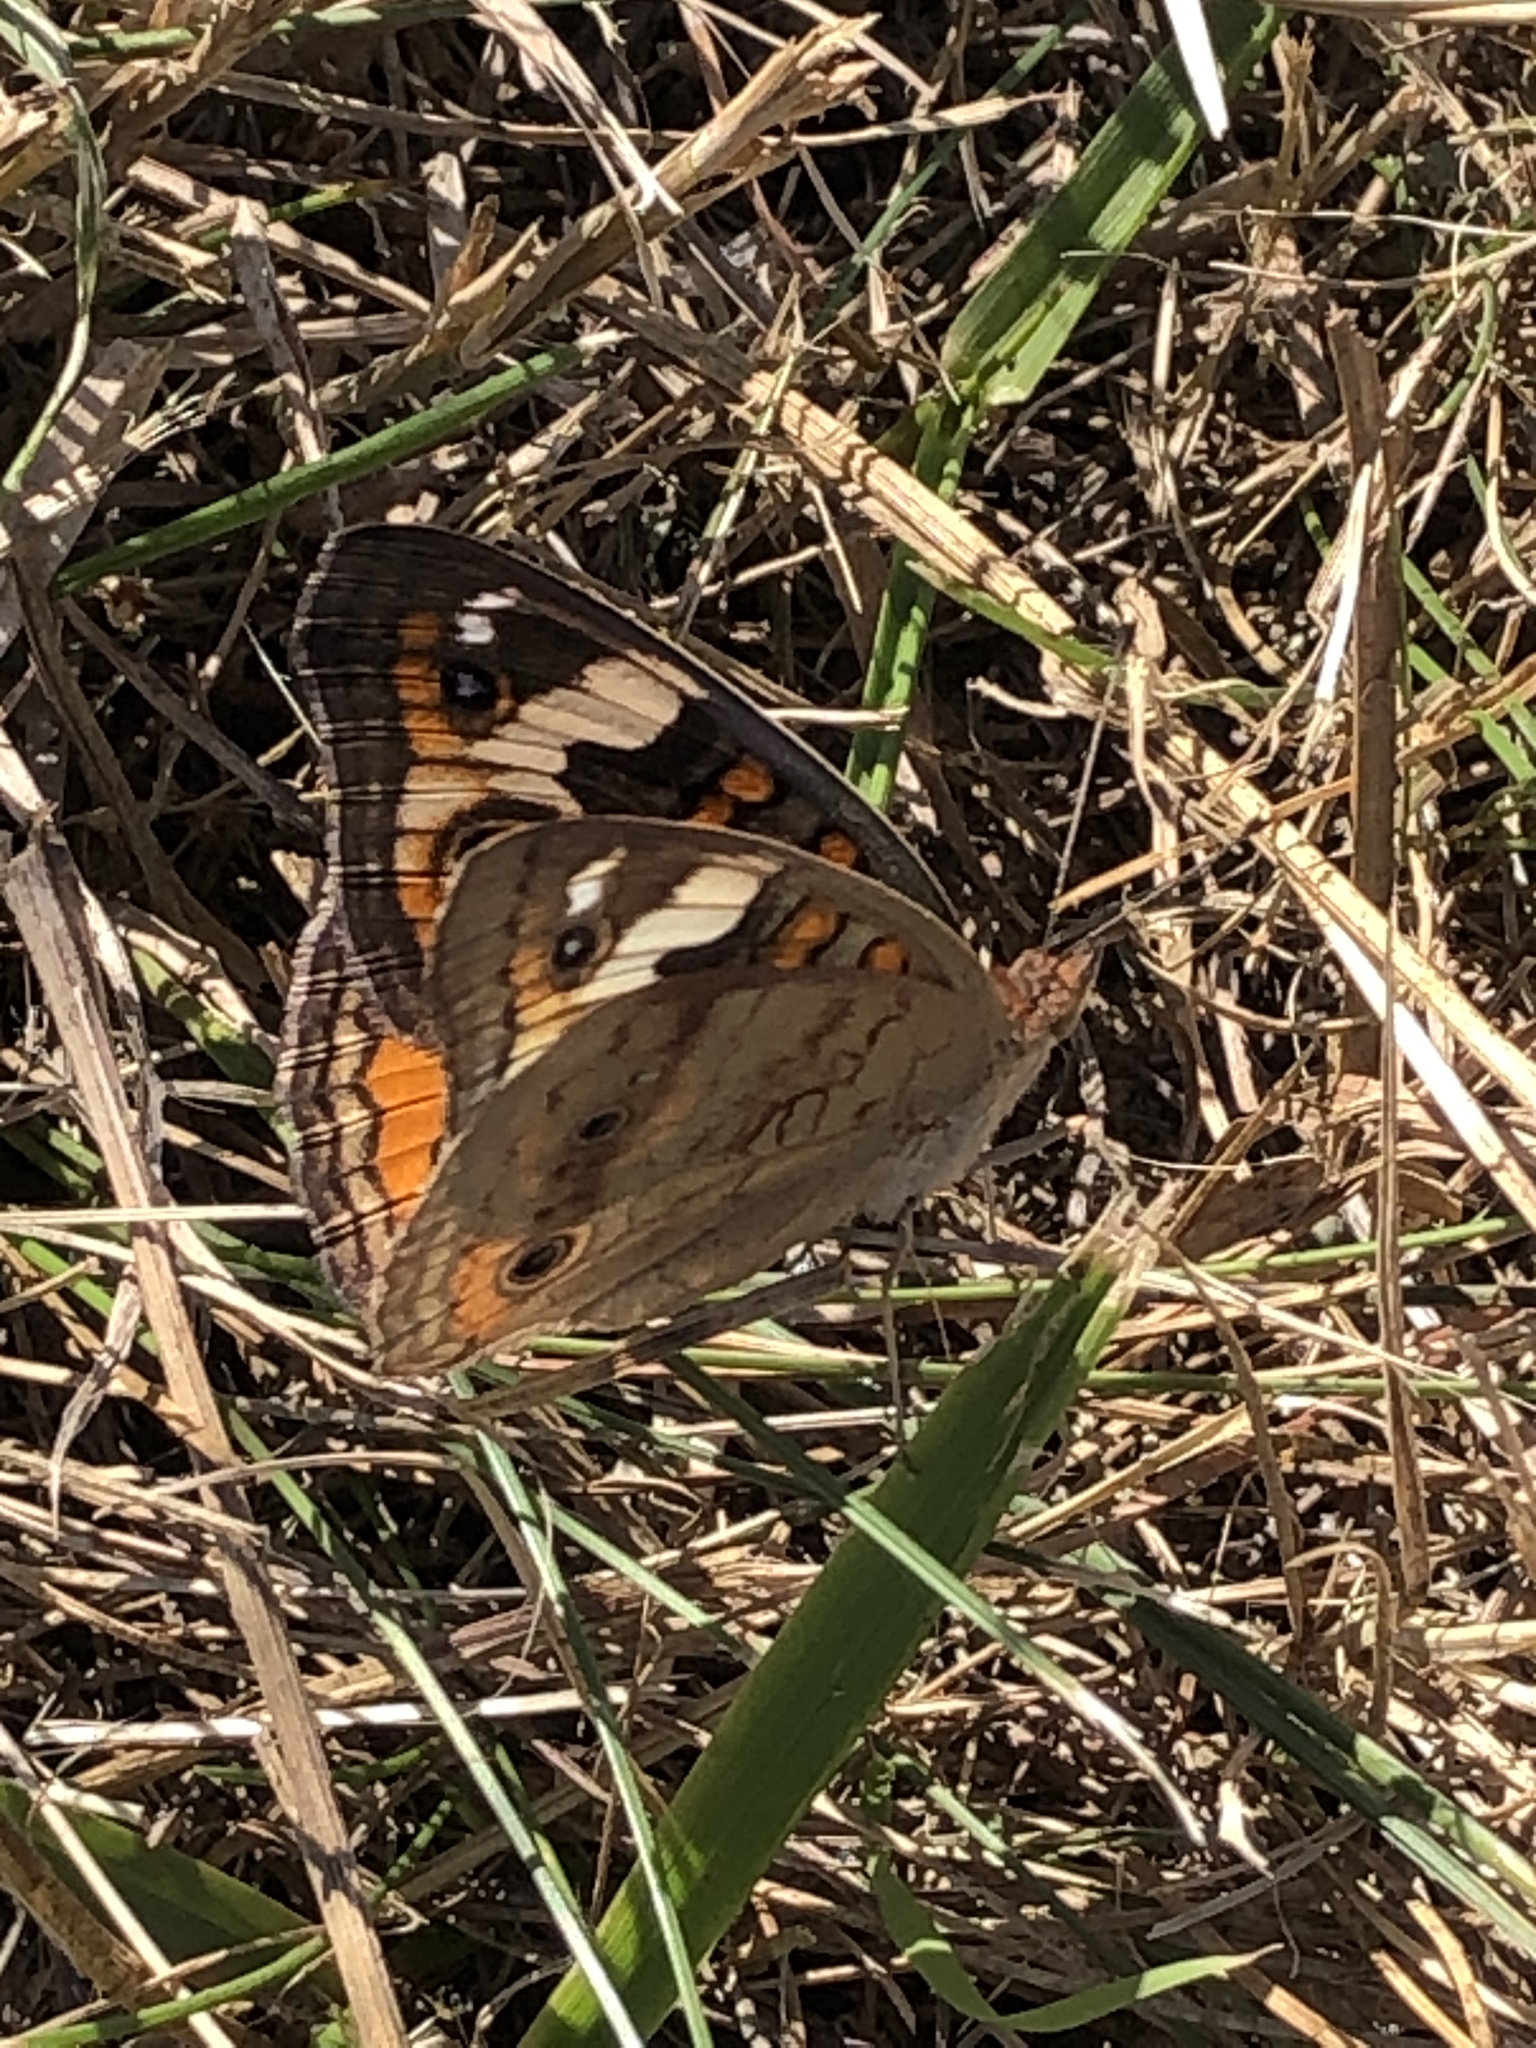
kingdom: Animalia
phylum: Arthropoda
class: Insecta
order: Lepidoptera
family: Nymphalidae
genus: Junonia
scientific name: Junonia coenia
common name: Common buckeye
